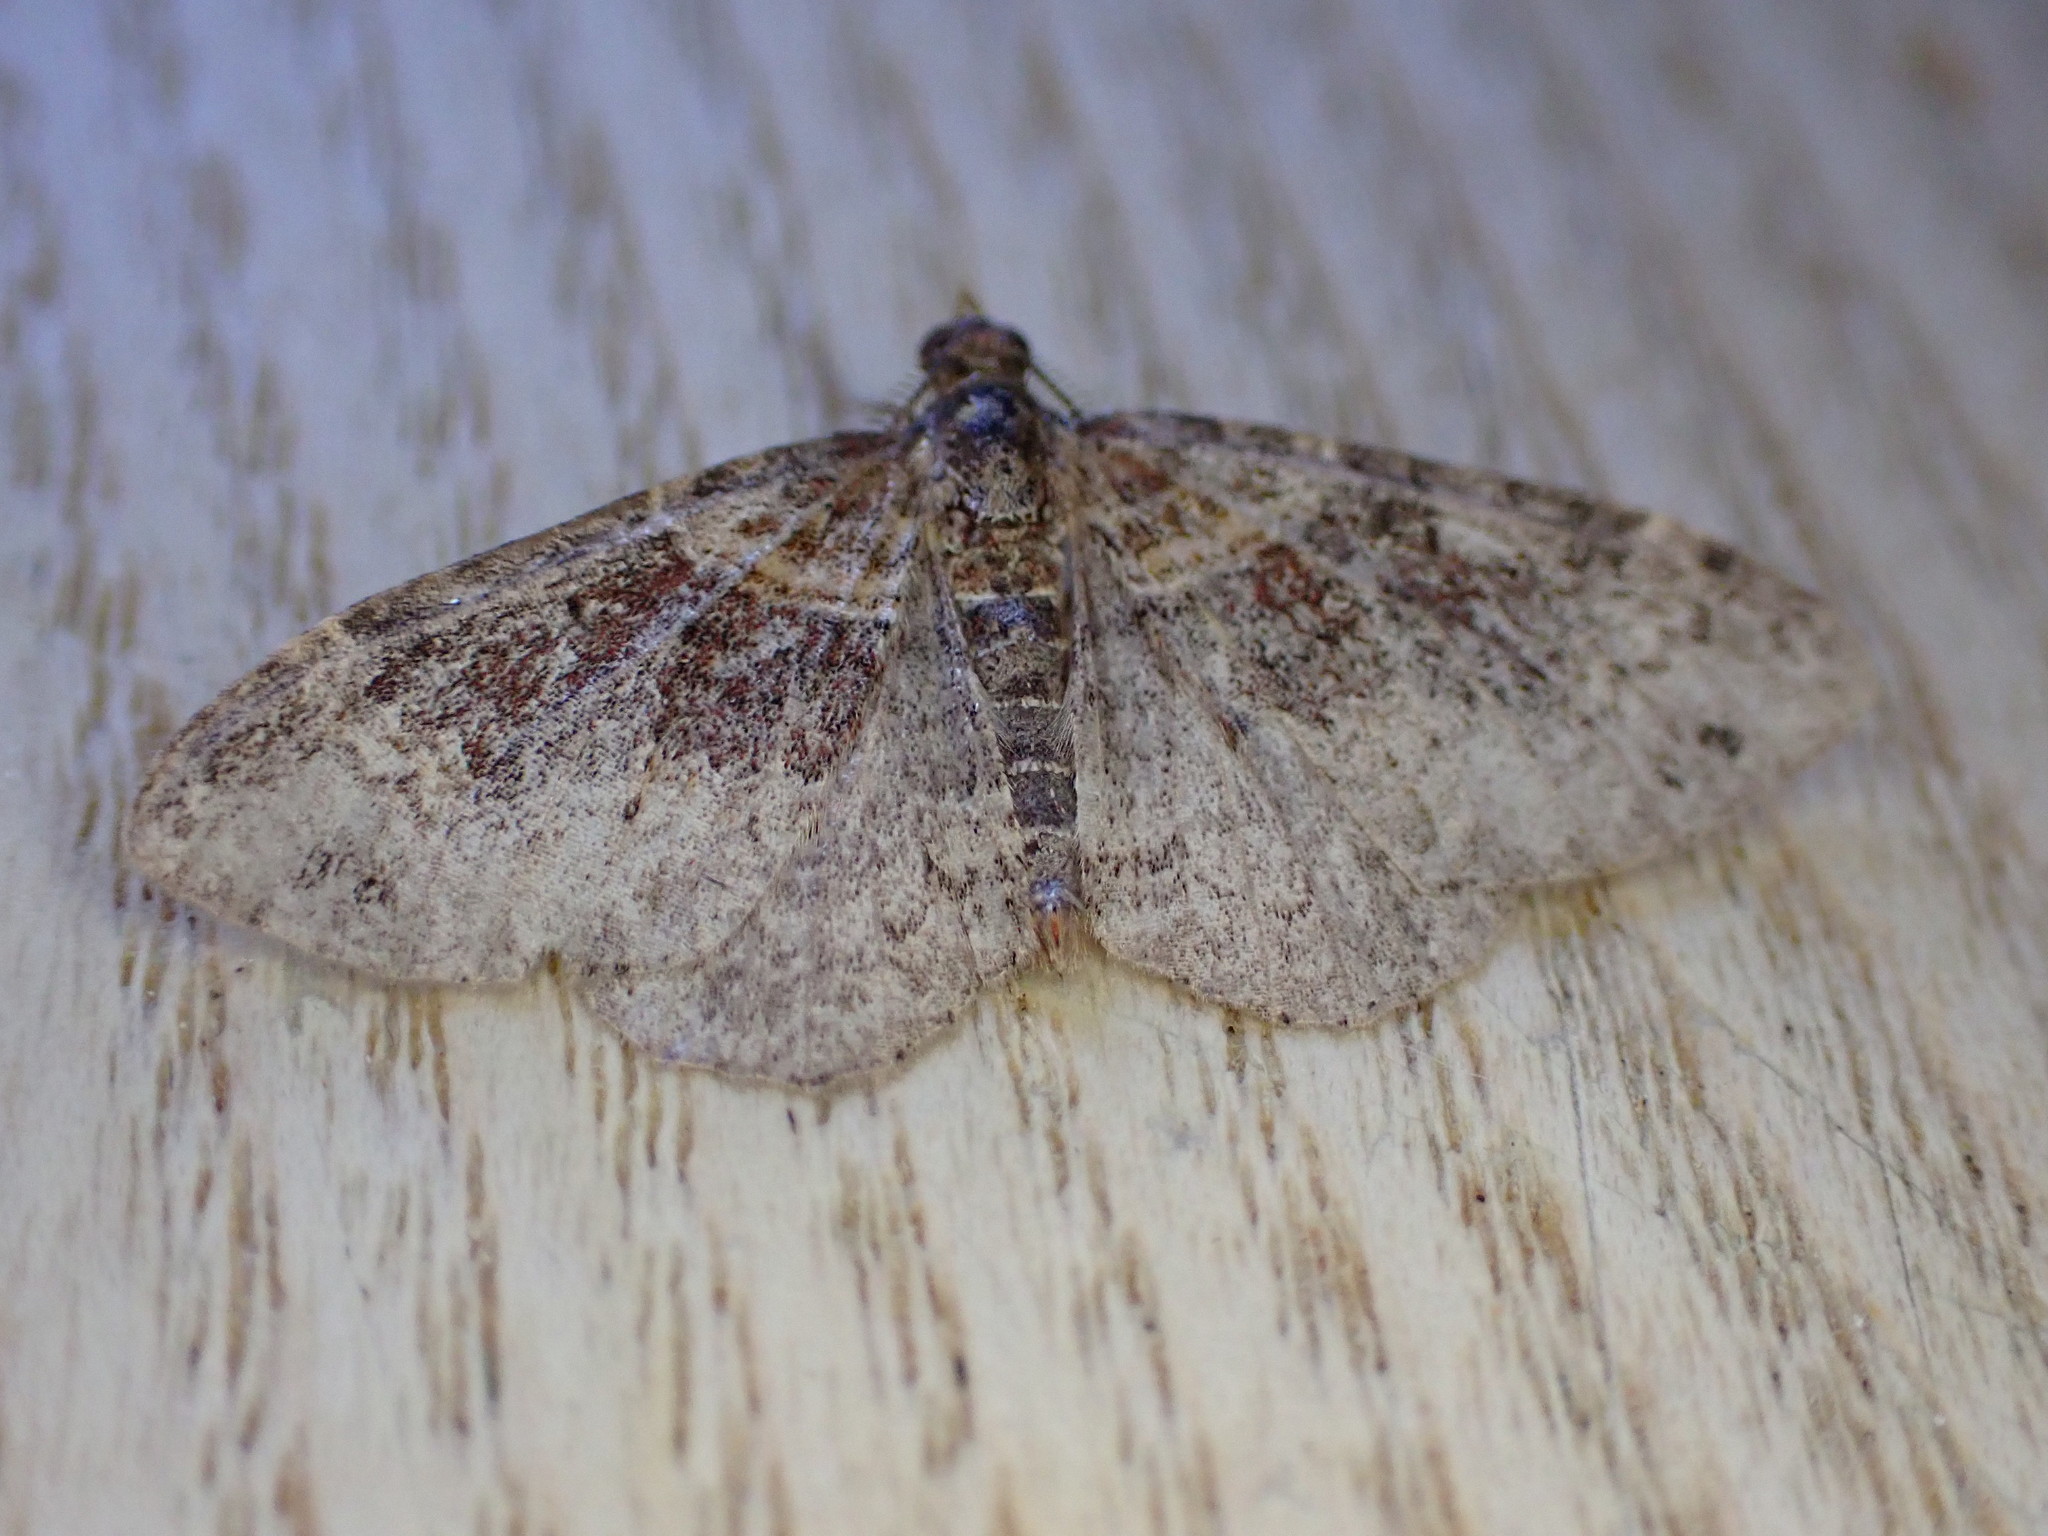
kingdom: Animalia
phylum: Arthropoda
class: Insecta
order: Lepidoptera
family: Geometridae
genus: Xanthorhoe
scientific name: Xanthorhoe ferrugata
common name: Dark-barred twin-spot carpet
